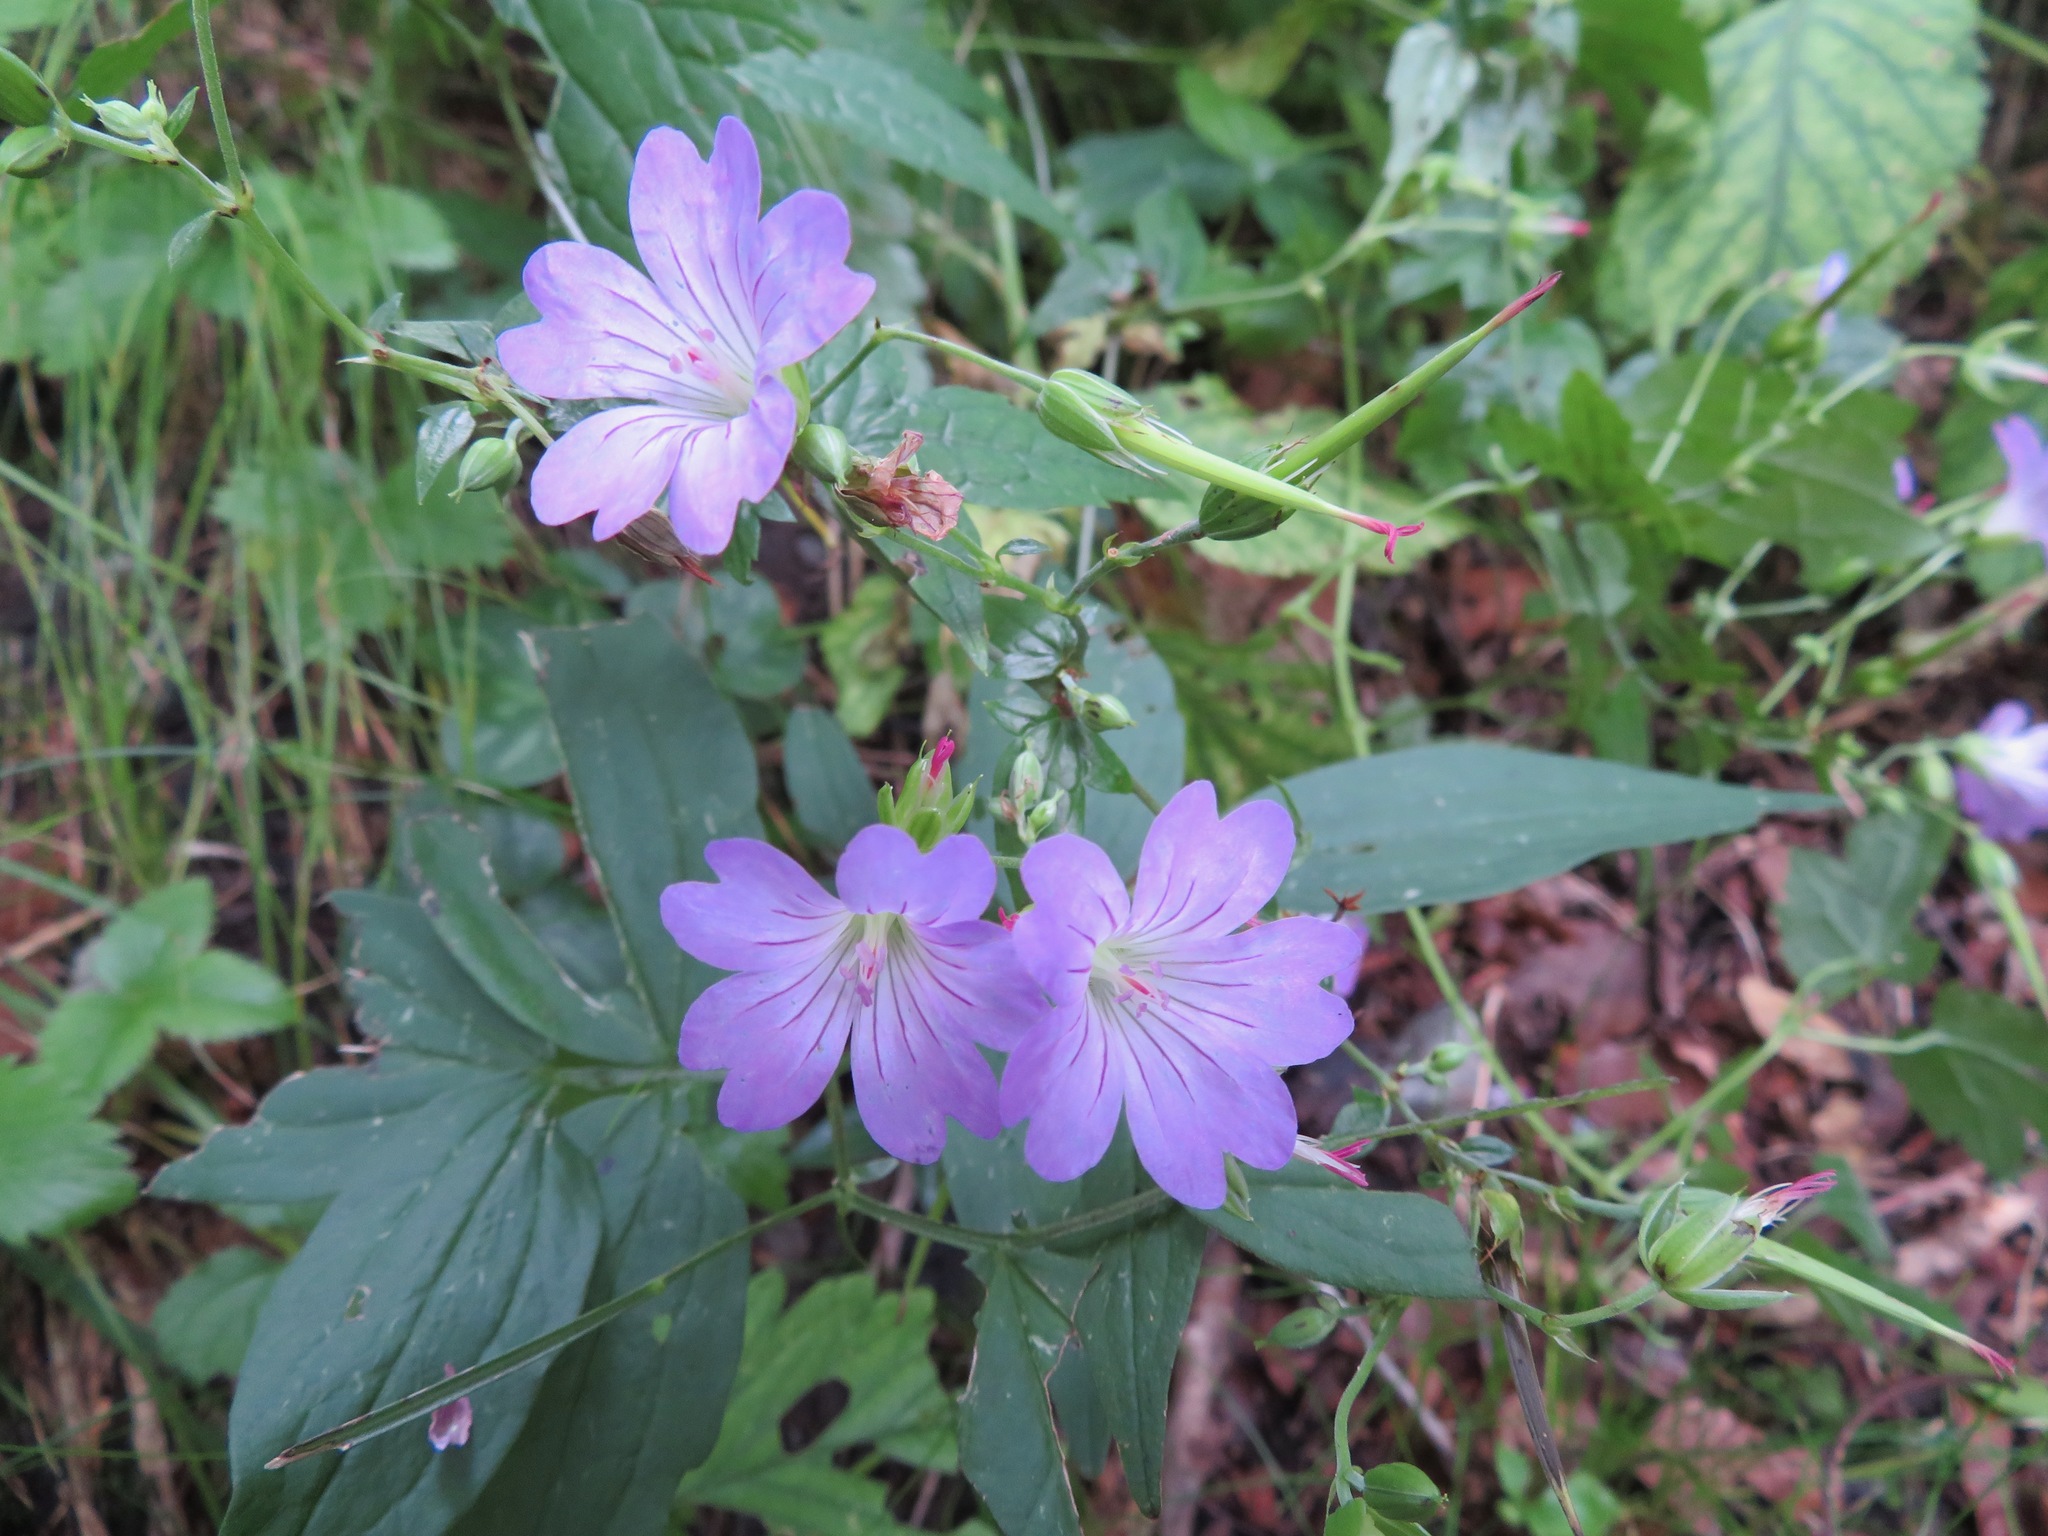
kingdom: Plantae
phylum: Tracheophyta
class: Magnoliopsida
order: Geraniales
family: Geraniaceae
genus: Geranium
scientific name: Geranium nodosum
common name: Knotted crane's-bill
